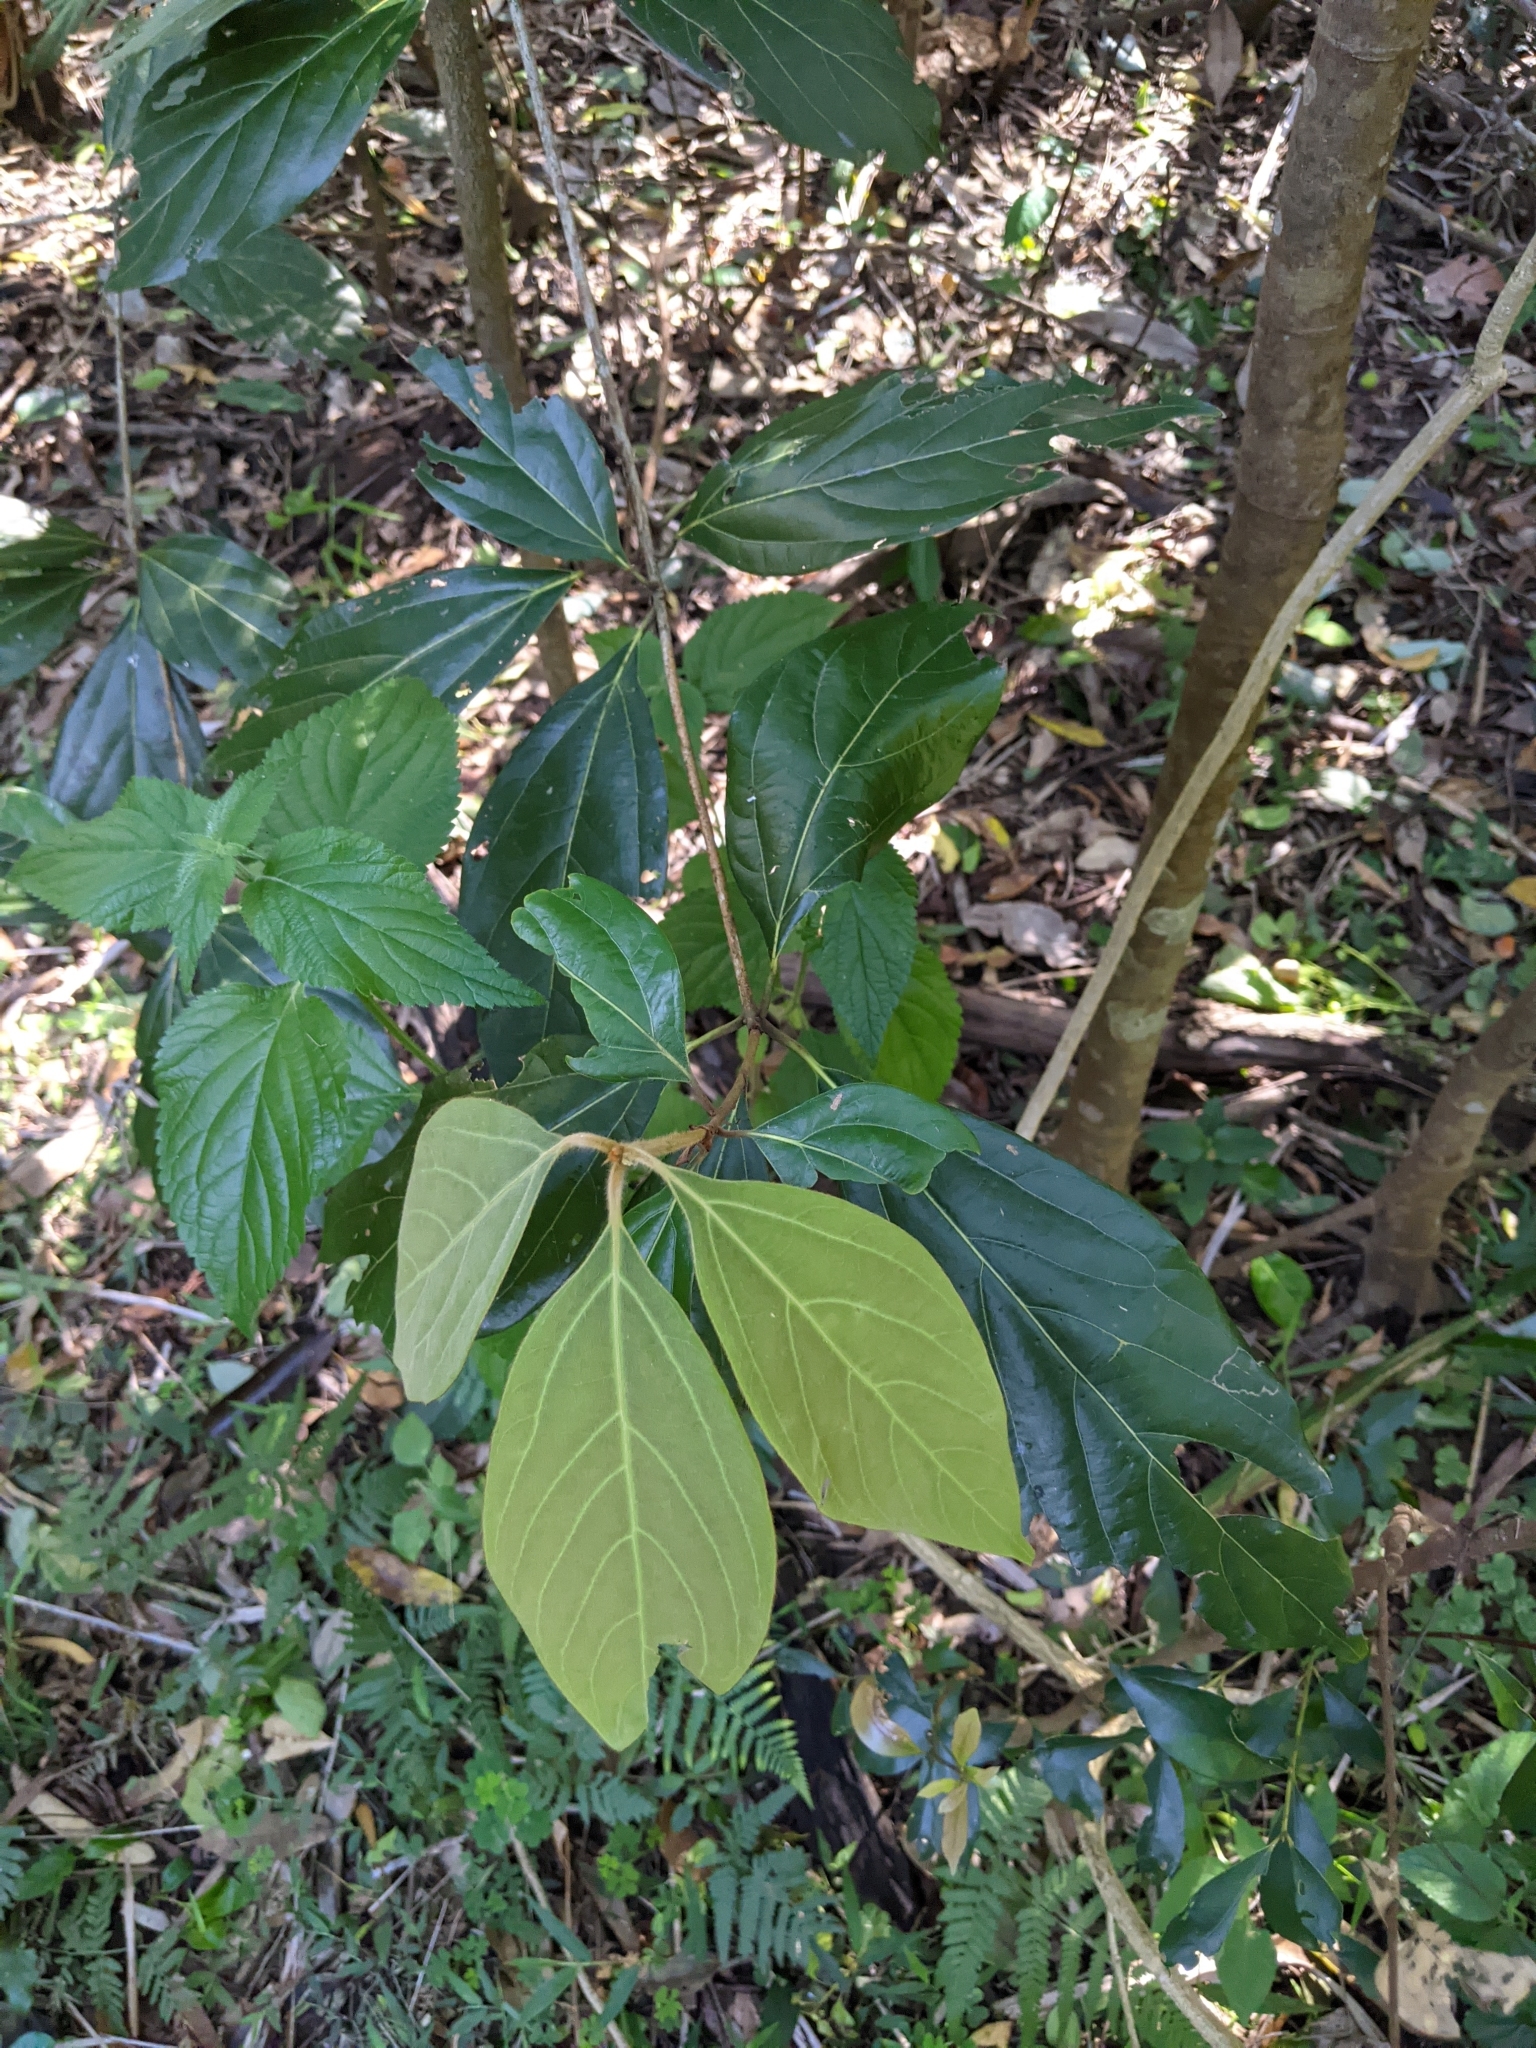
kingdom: Plantae
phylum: Tracheophyta
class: Magnoliopsida
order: Laurales
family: Lauraceae
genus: Neolitsea
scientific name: Neolitsea dealbata
